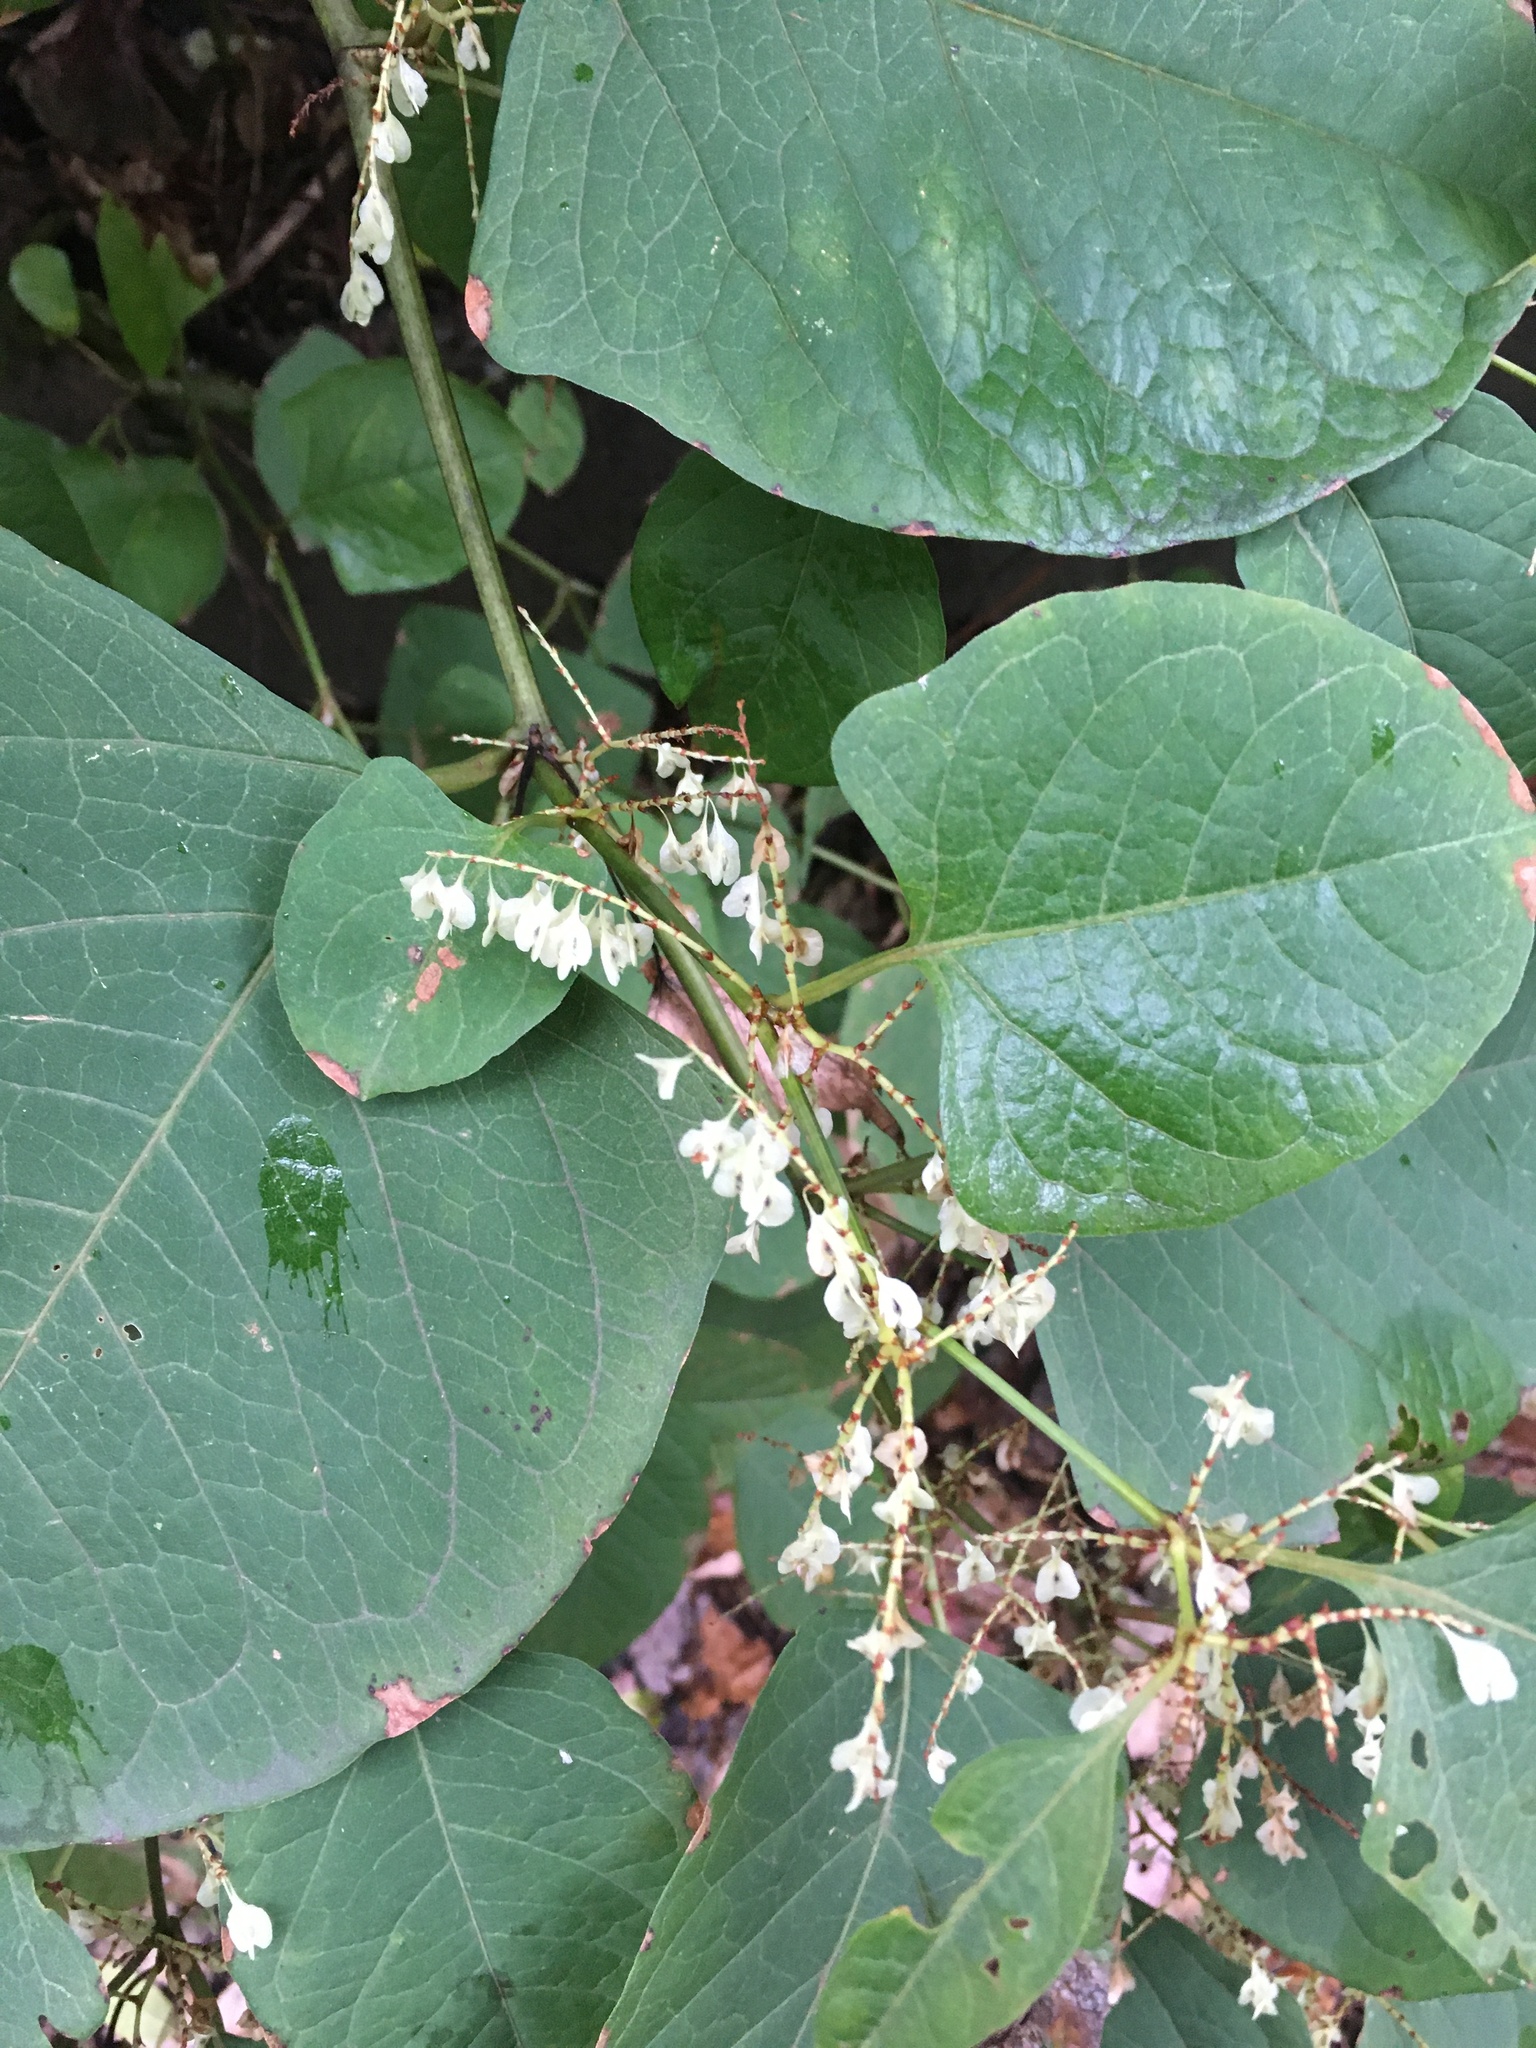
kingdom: Plantae
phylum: Tracheophyta
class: Magnoliopsida
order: Caryophyllales
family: Polygonaceae
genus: Reynoutria
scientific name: Reynoutria japonica
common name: Japanese knotweed
